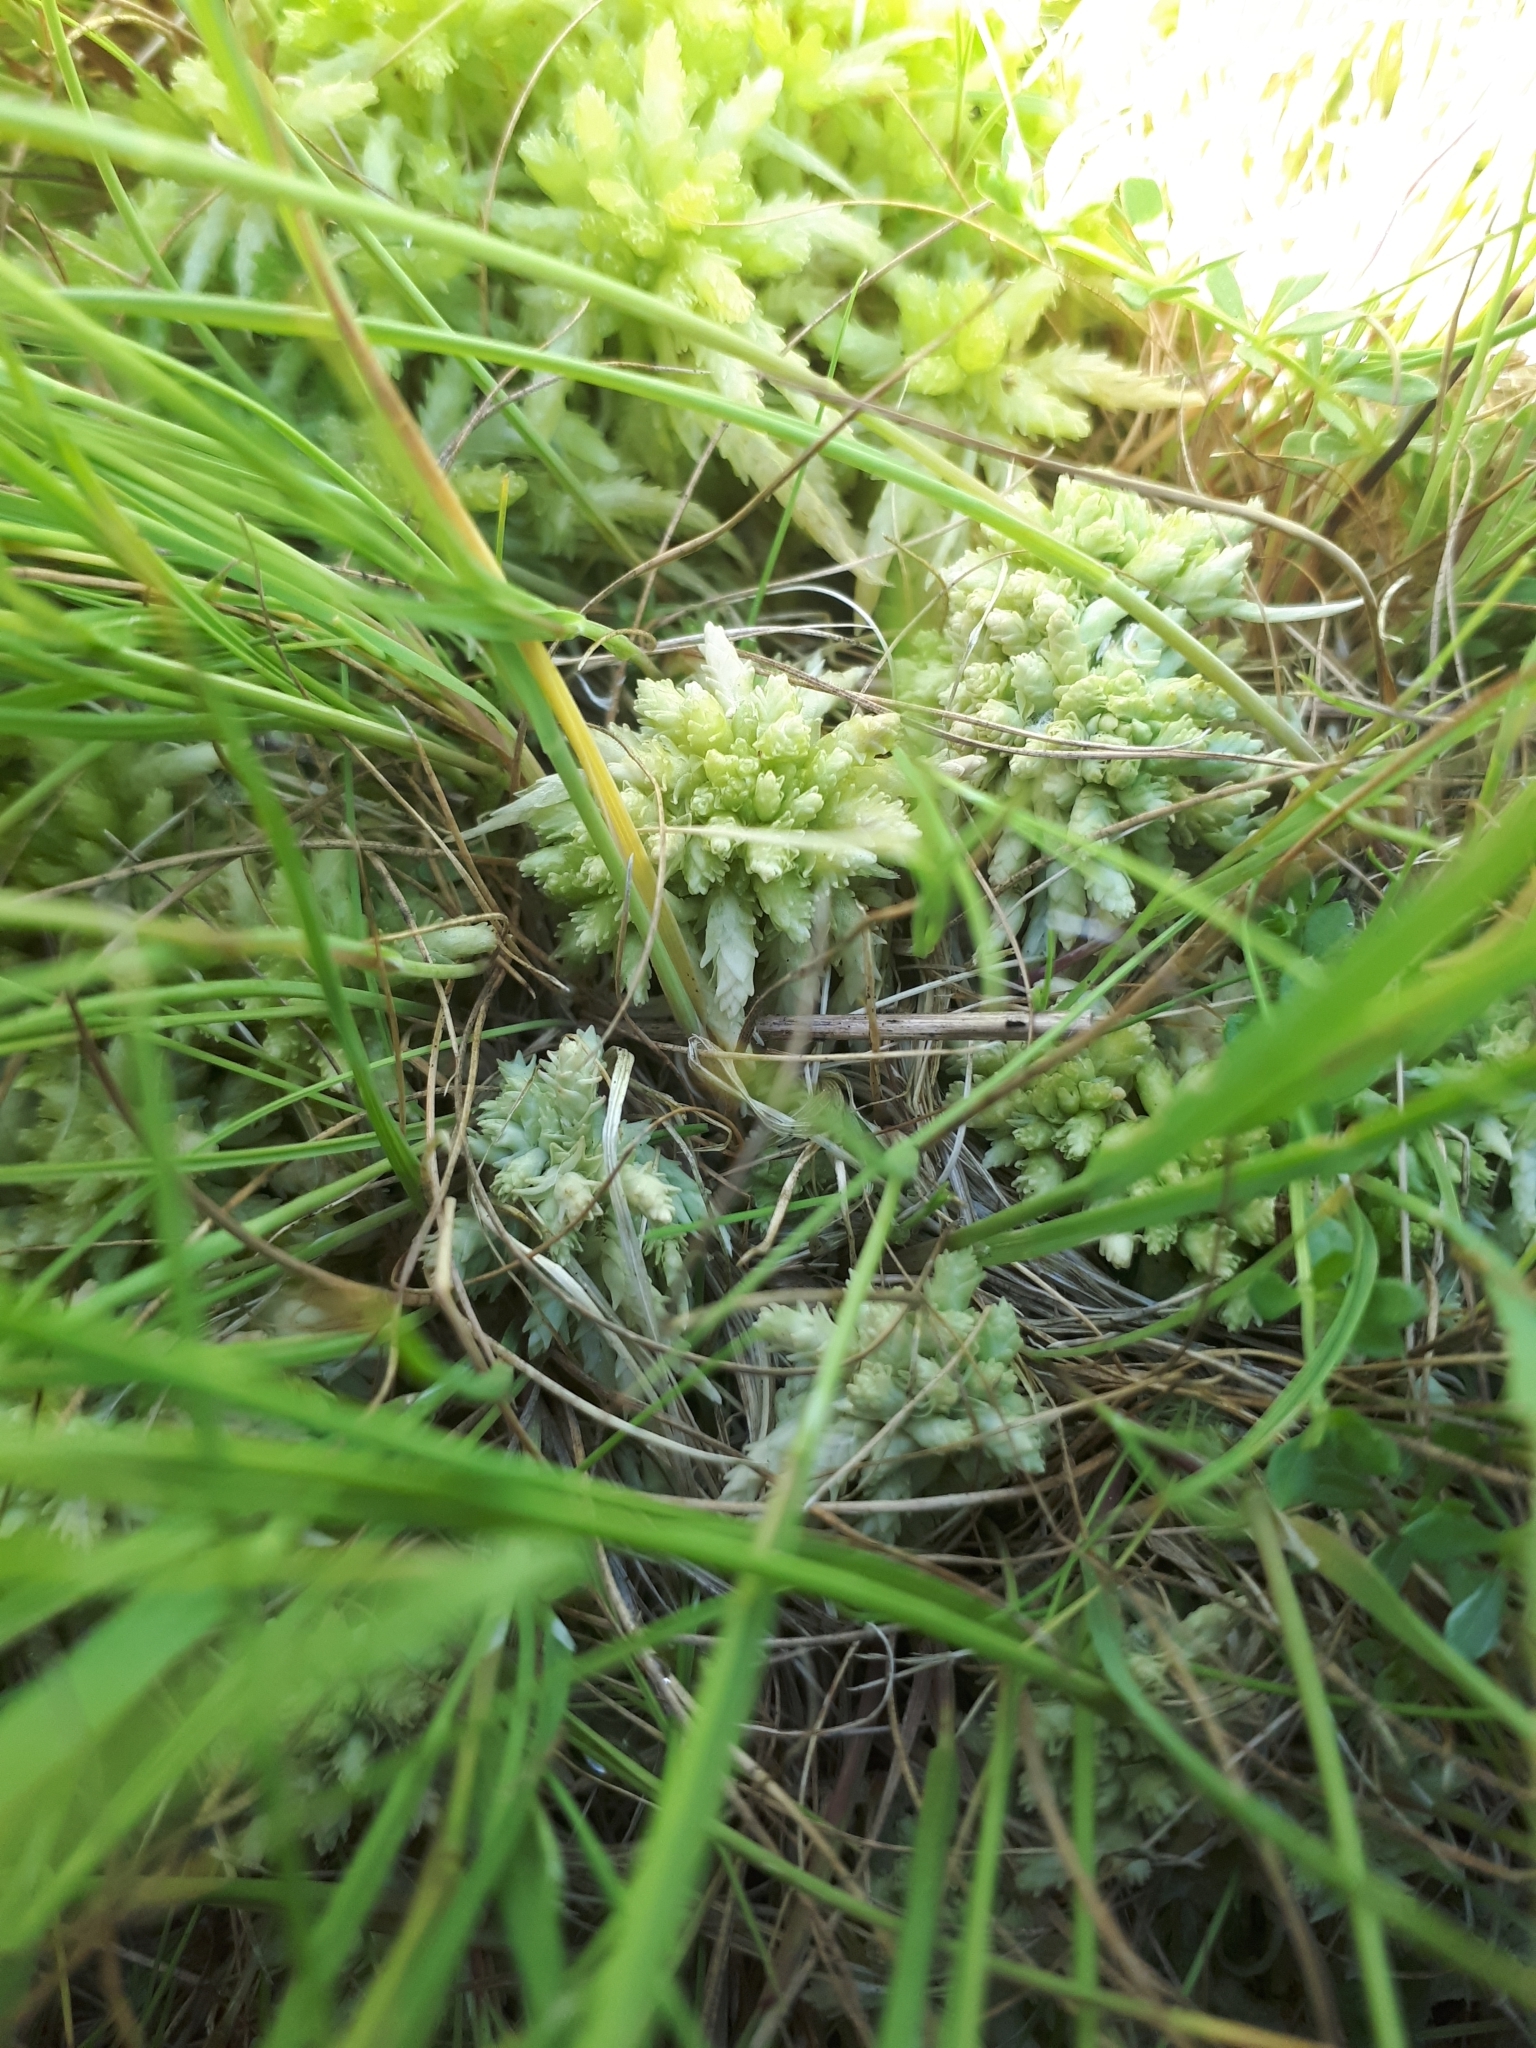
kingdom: Plantae
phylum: Bryophyta
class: Sphagnopsida
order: Sphagnales
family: Sphagnaceae
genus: Sphagnum
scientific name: Sphagnum palustre
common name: Blunt-leaved bog-moss
